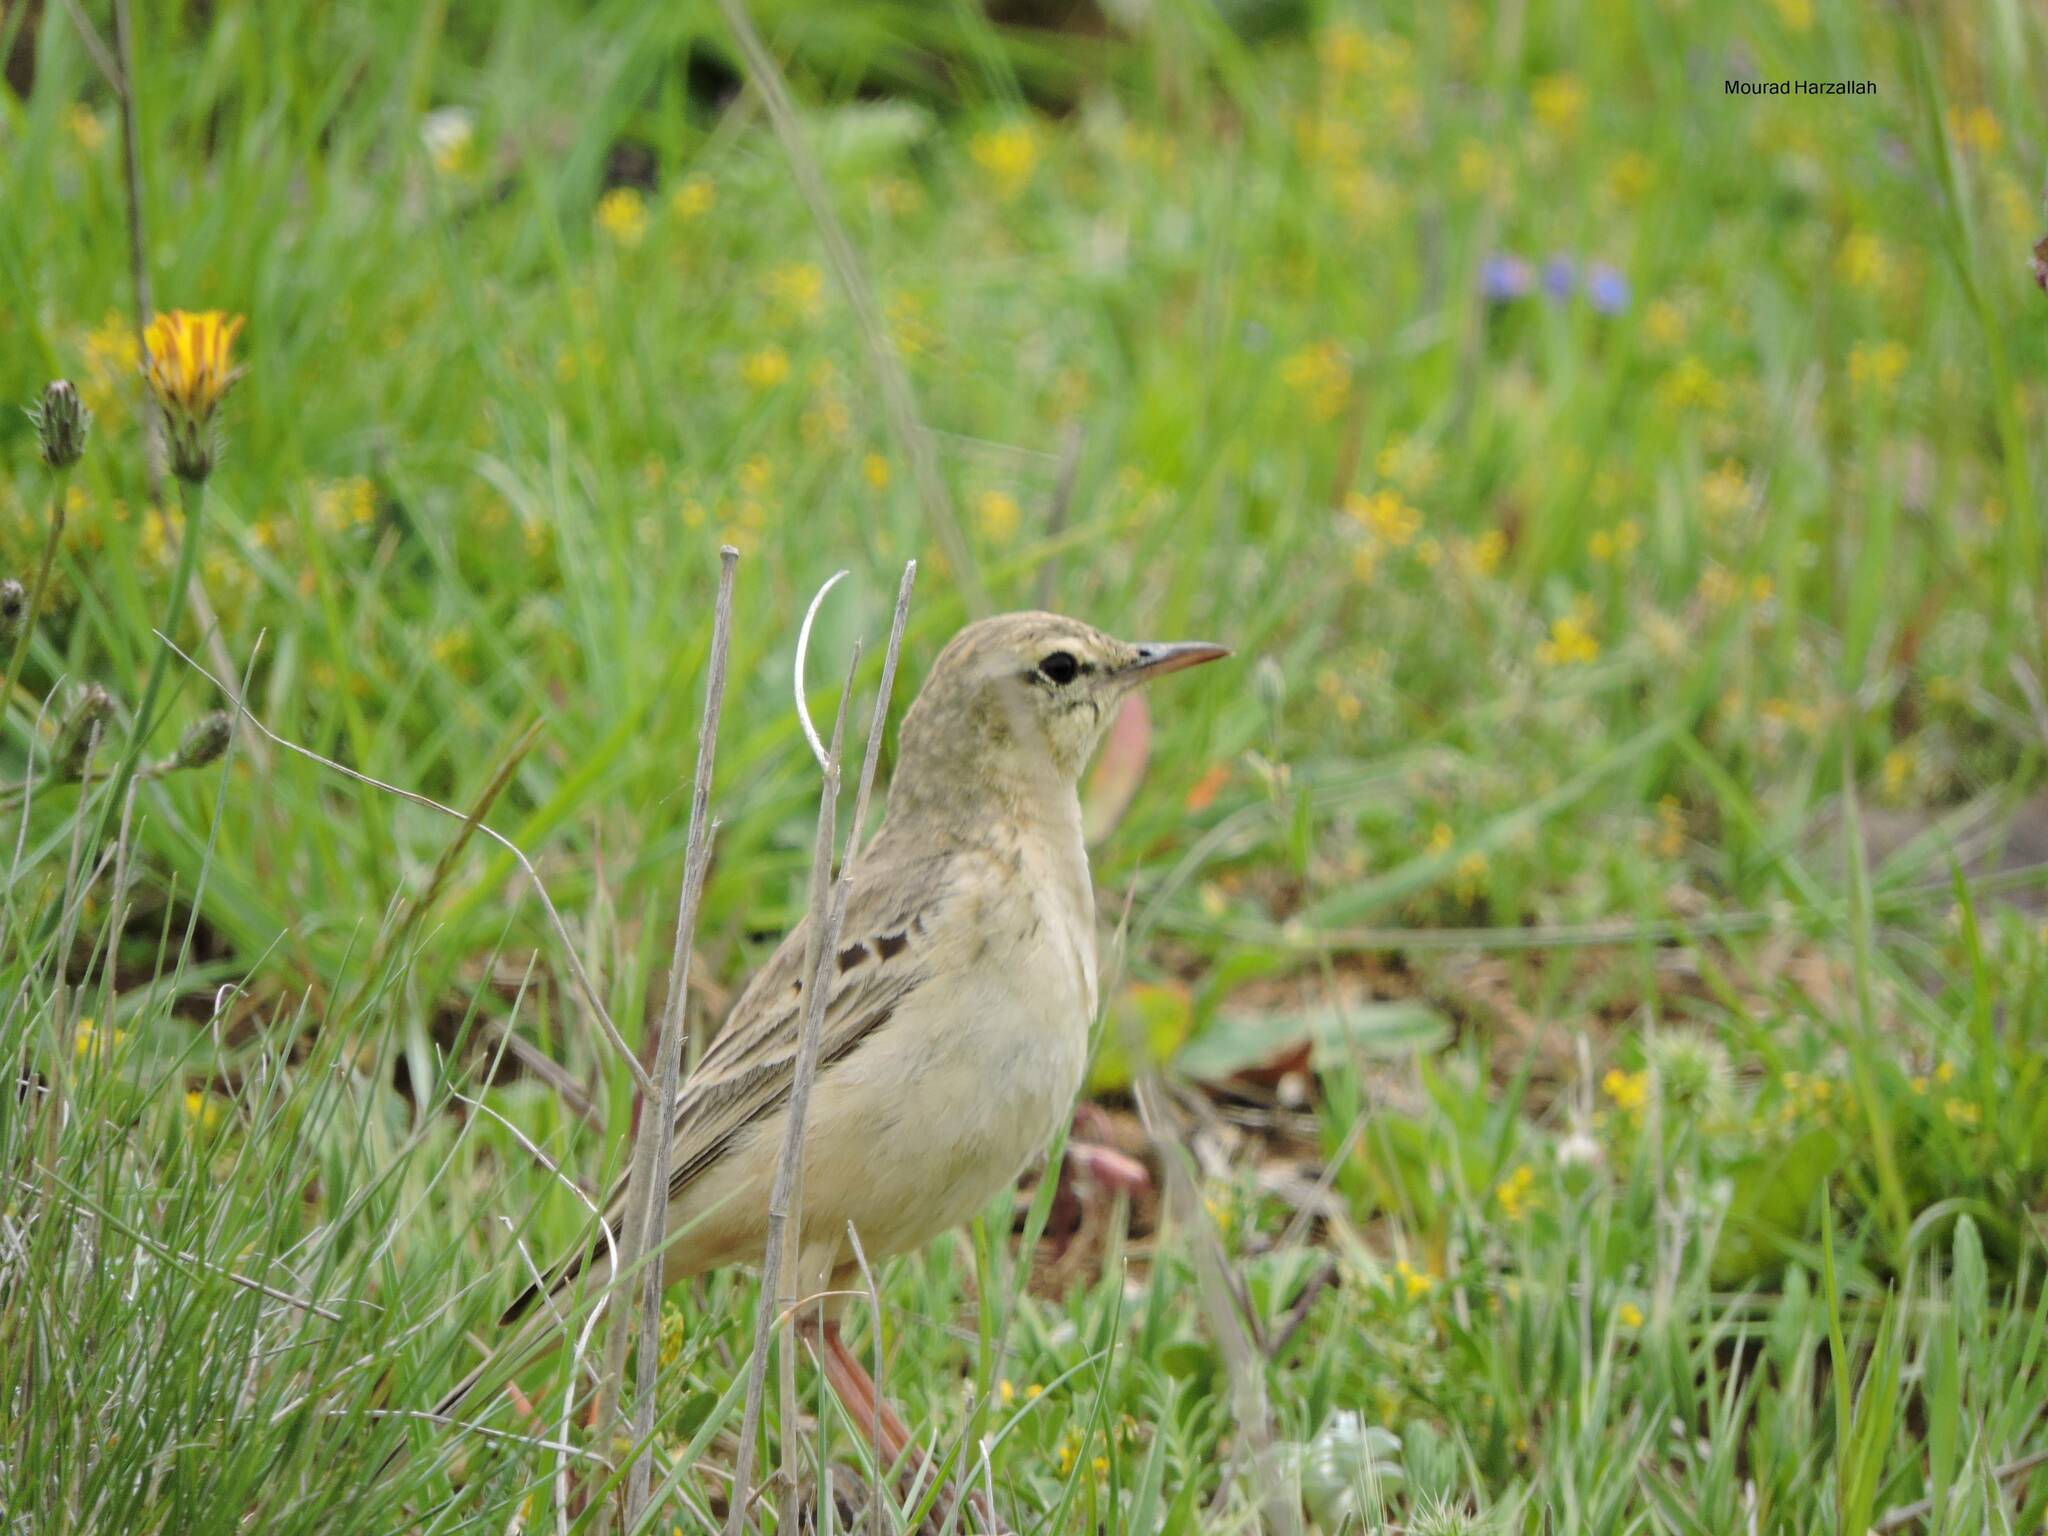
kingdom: Animalia
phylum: Chordata
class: Aves
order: Passeriformes
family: Motacillidae
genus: Anthus
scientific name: Anthus campestris
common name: Tawny pipit
